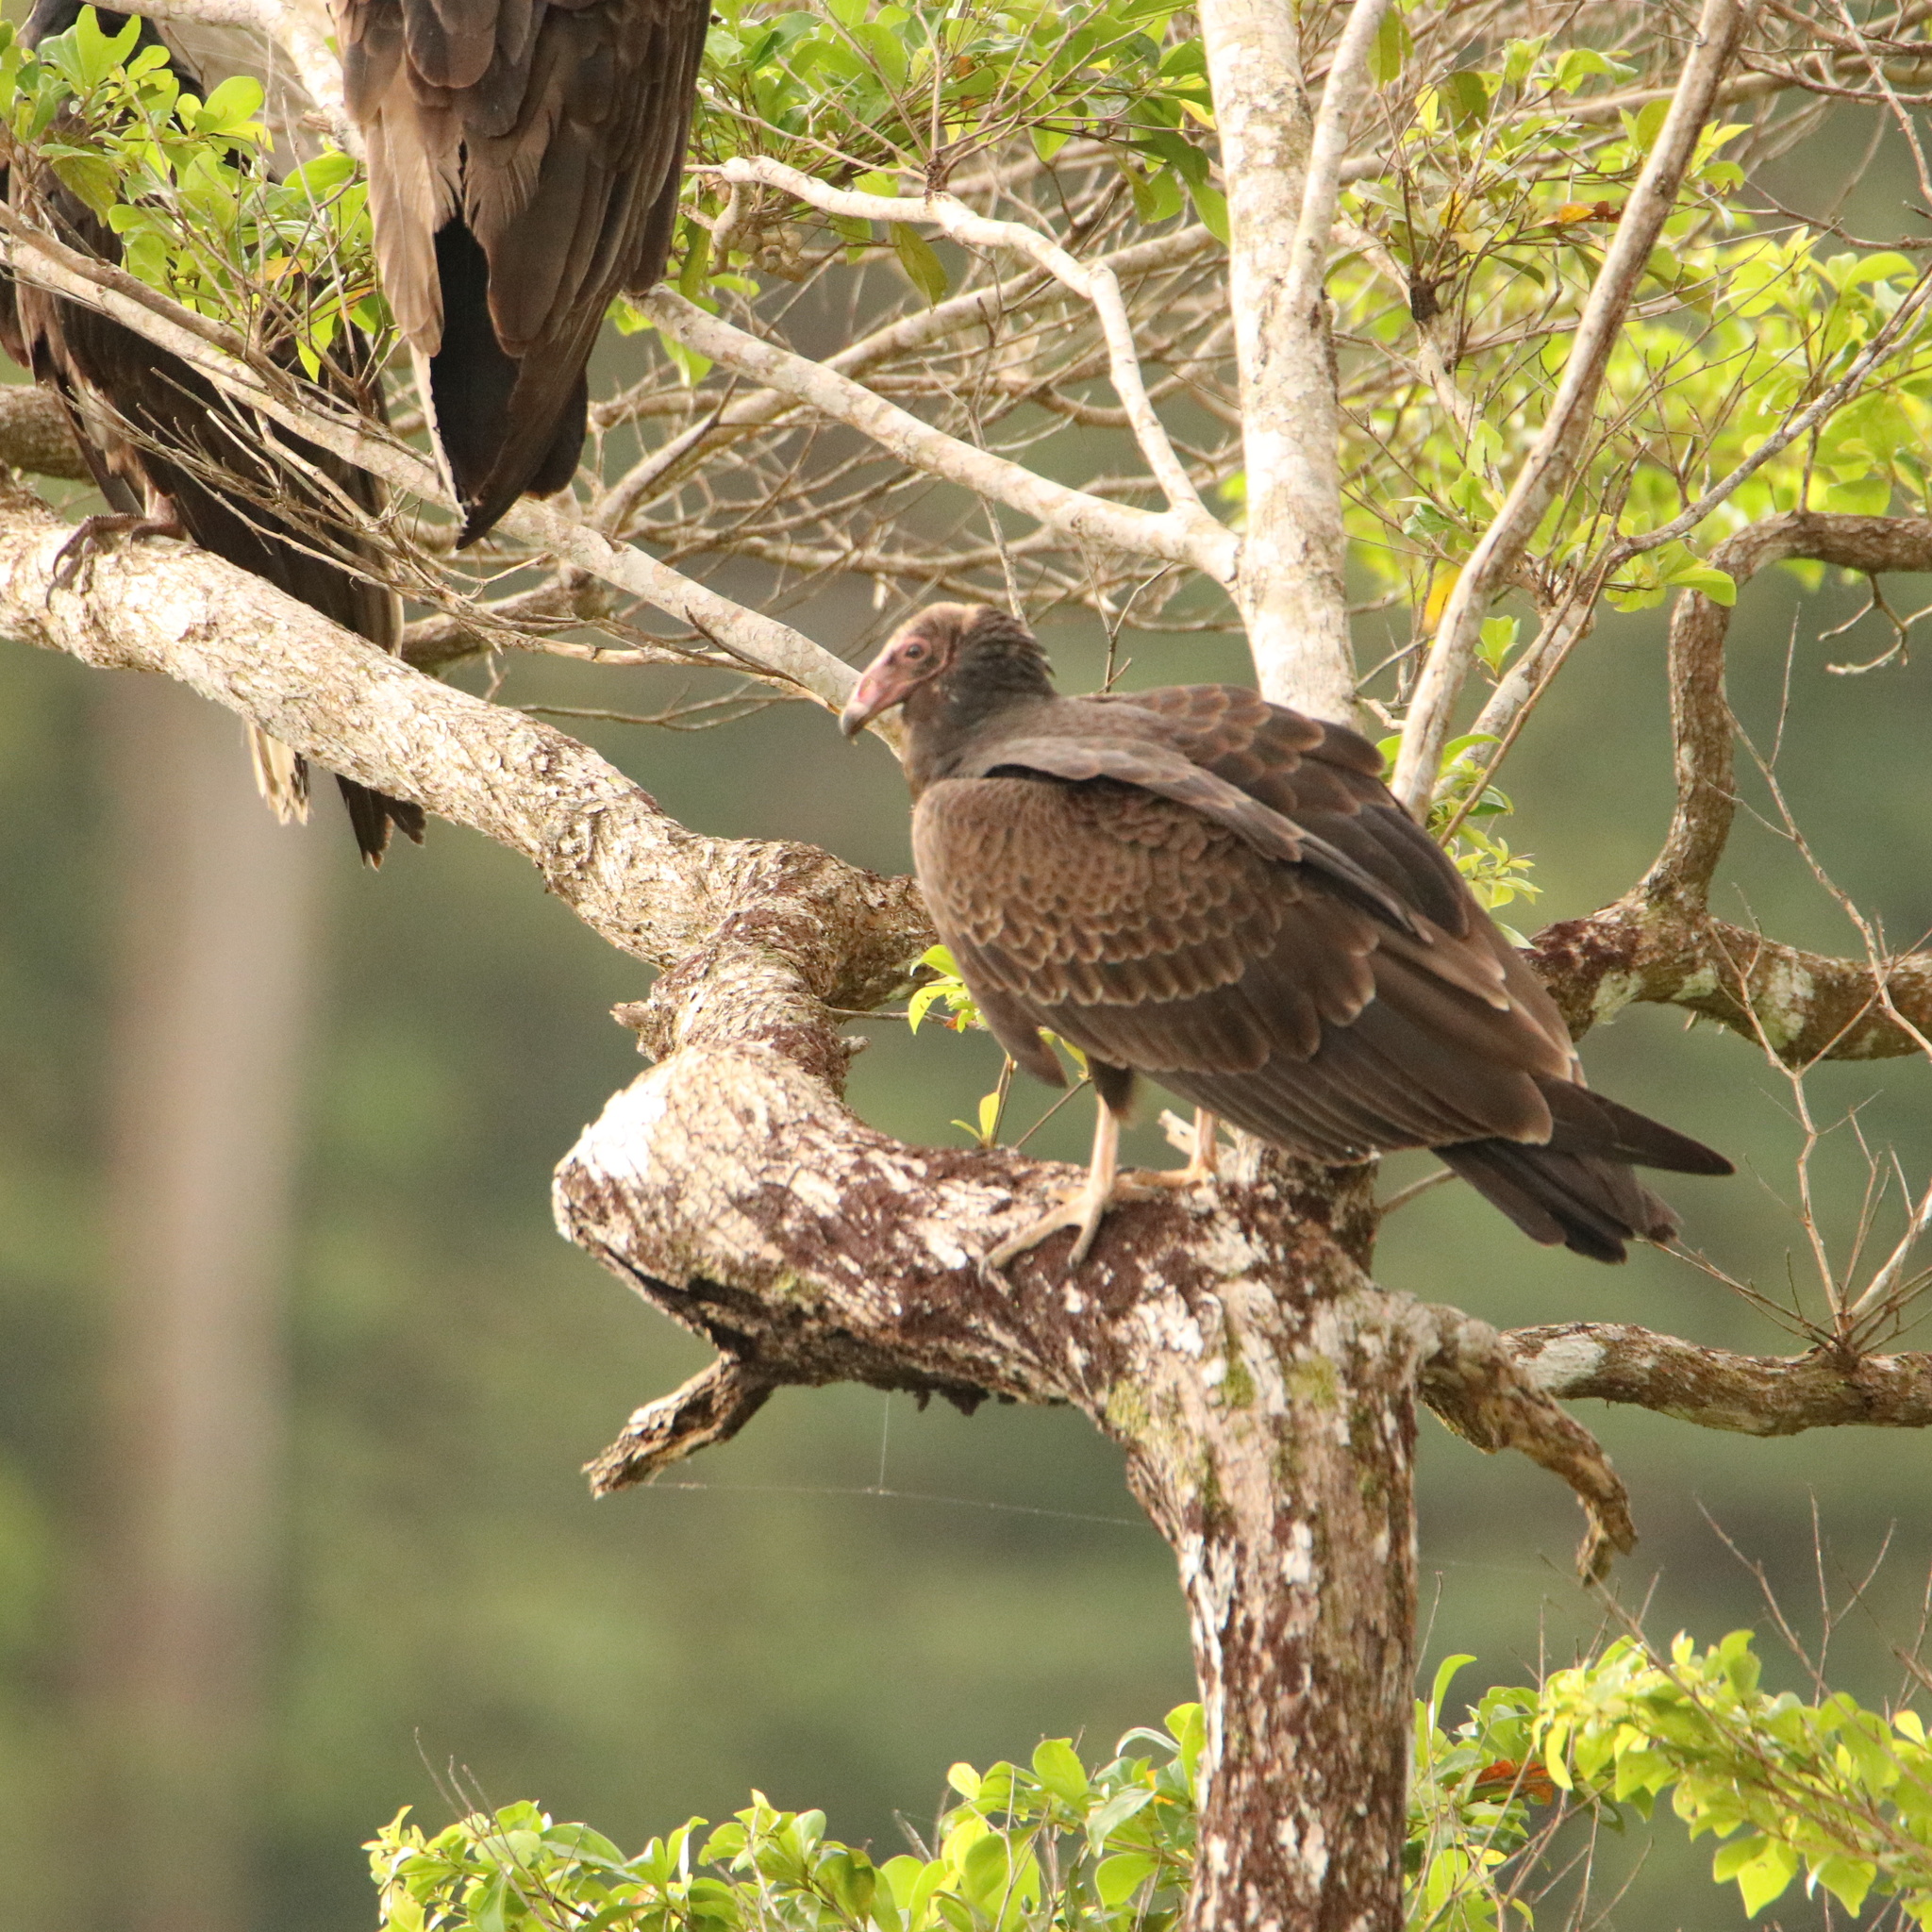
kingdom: Animalia
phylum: Chordata
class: Aves
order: Accipitriformes
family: Cathartidae
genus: Cathartes
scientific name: Cathartes aura
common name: Turkey vulture
